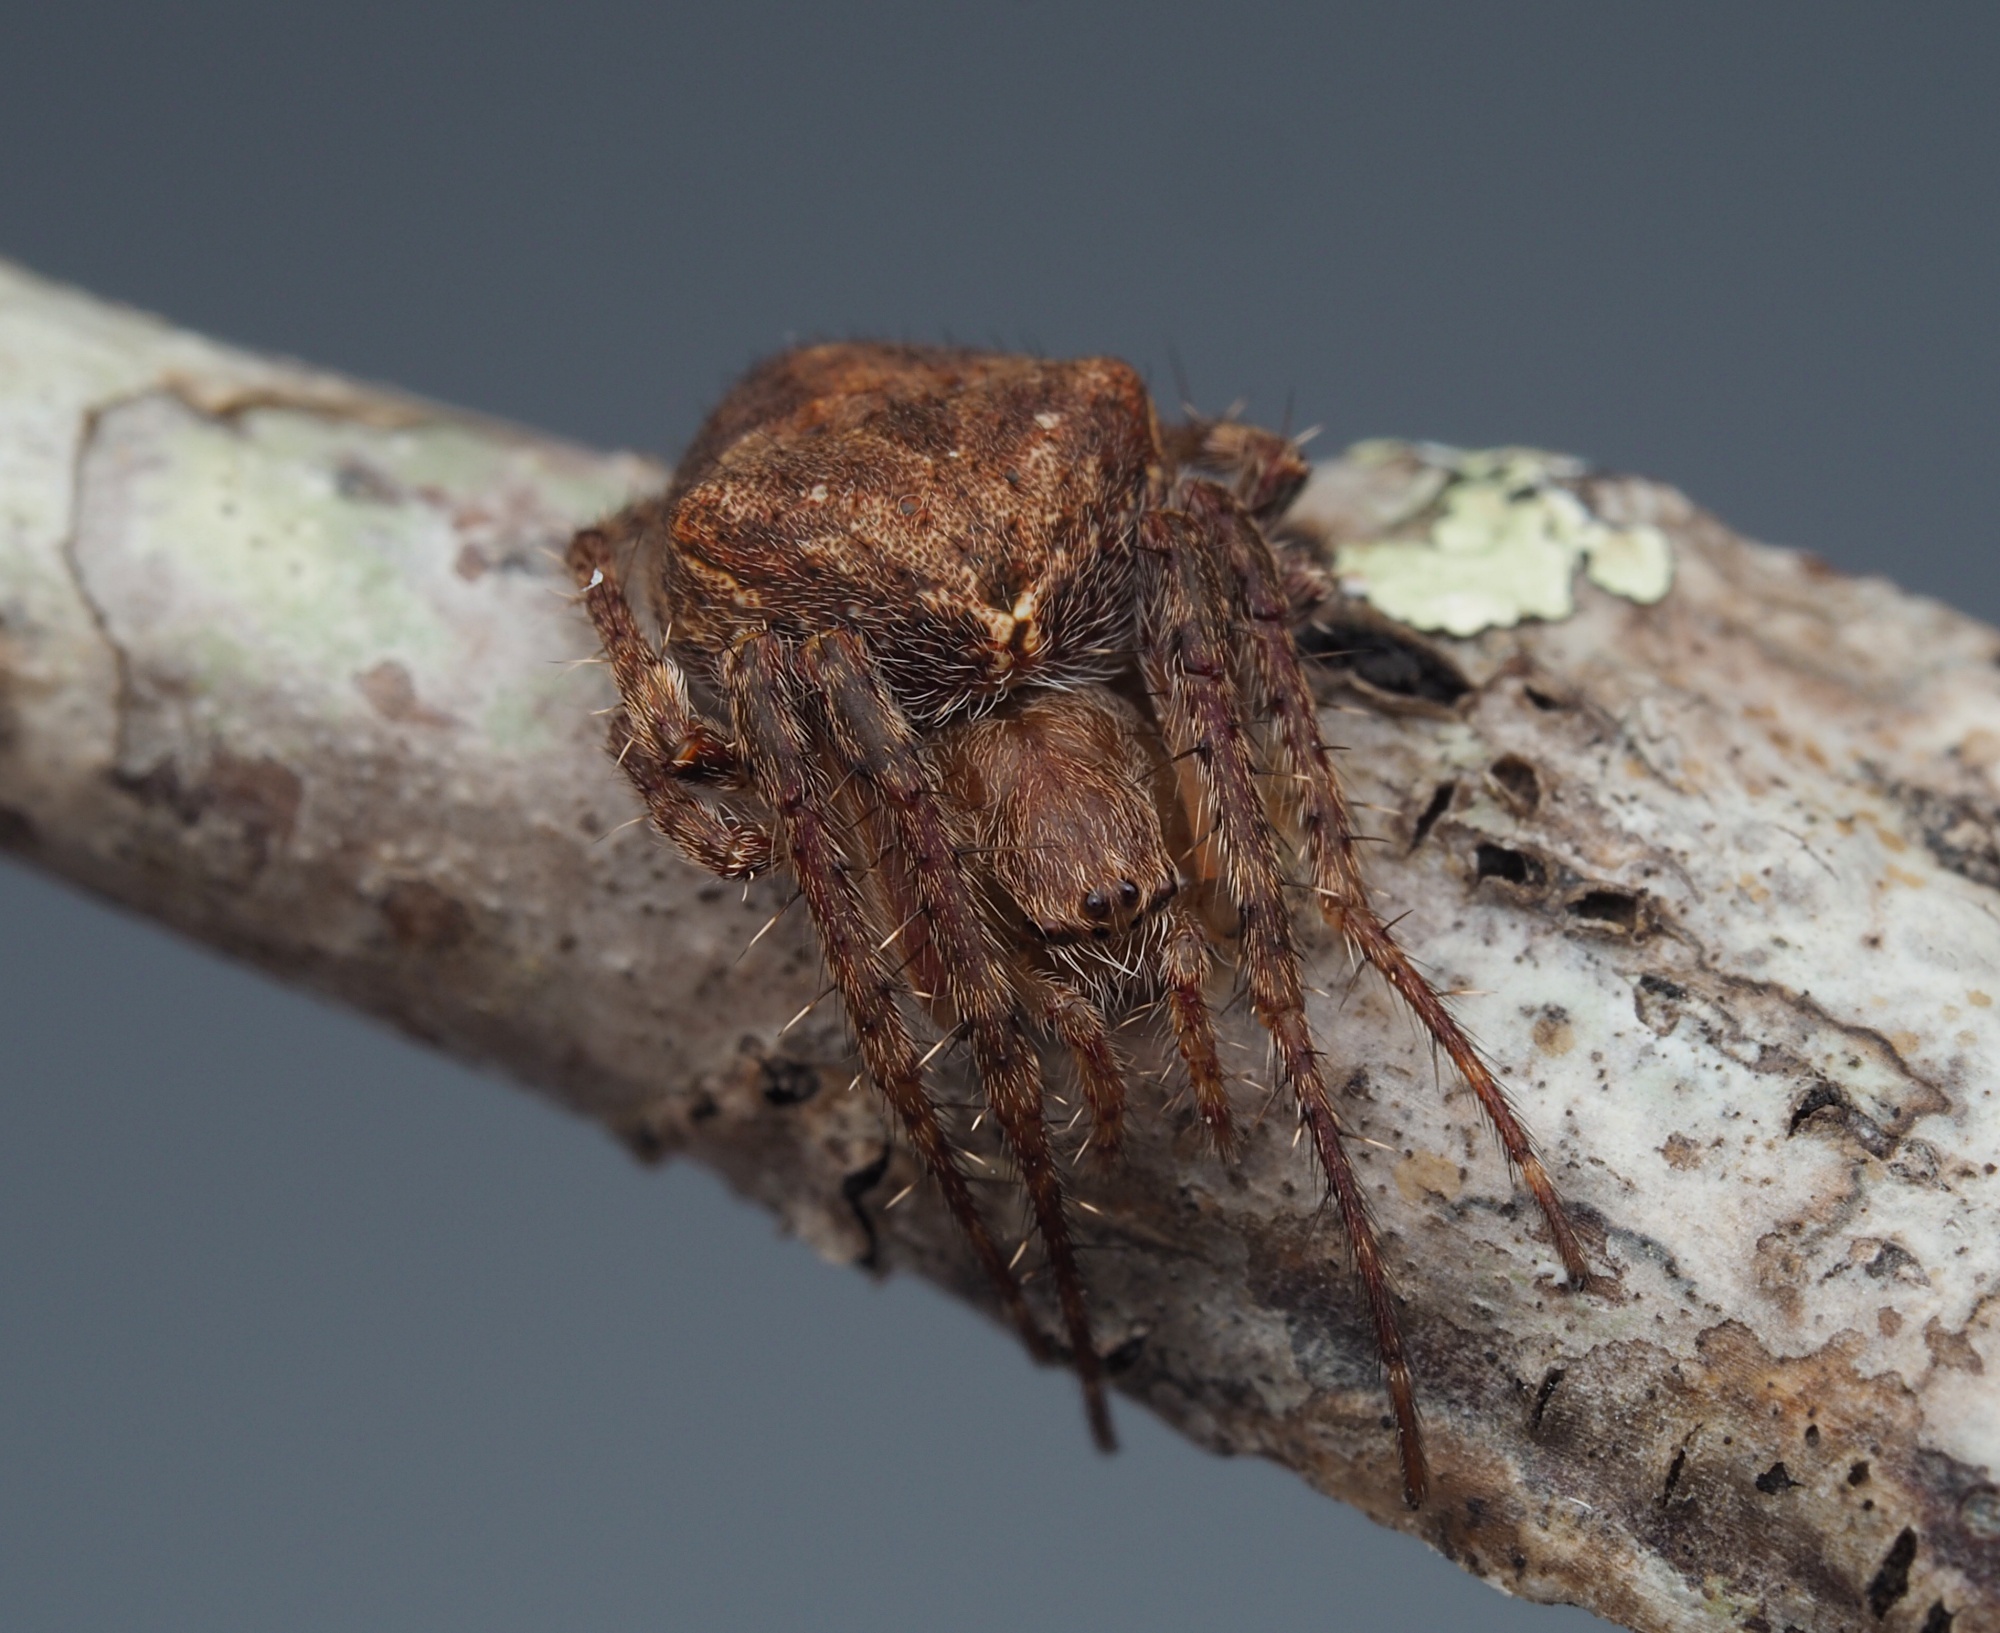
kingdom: Animalia
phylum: Arthropoda
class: Arachnida
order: Araneae
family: Araneidae
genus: Eriophora
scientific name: Eriophora pustulosa
